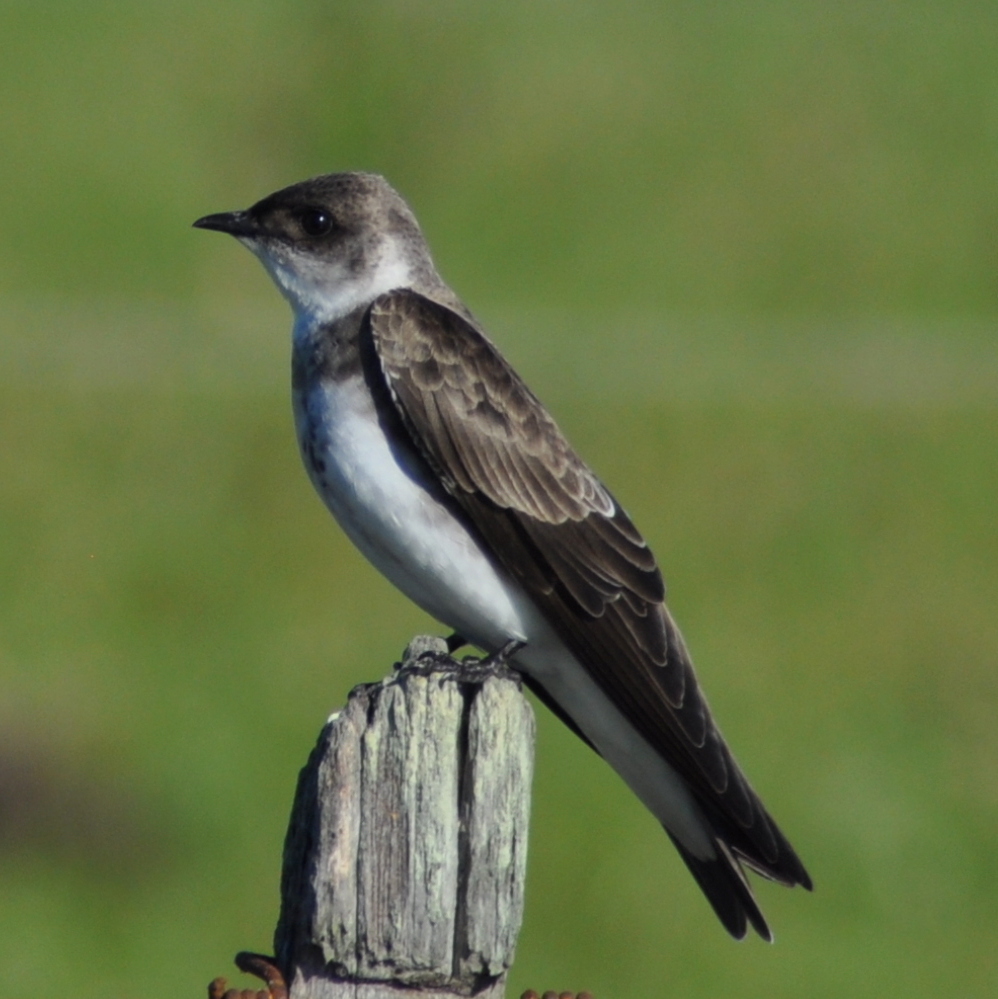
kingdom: Animalia
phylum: Chordata
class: Aves
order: Passeriformes
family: Hirundinidae
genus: Progne
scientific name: Progne tapera
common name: Brown-chested martin
